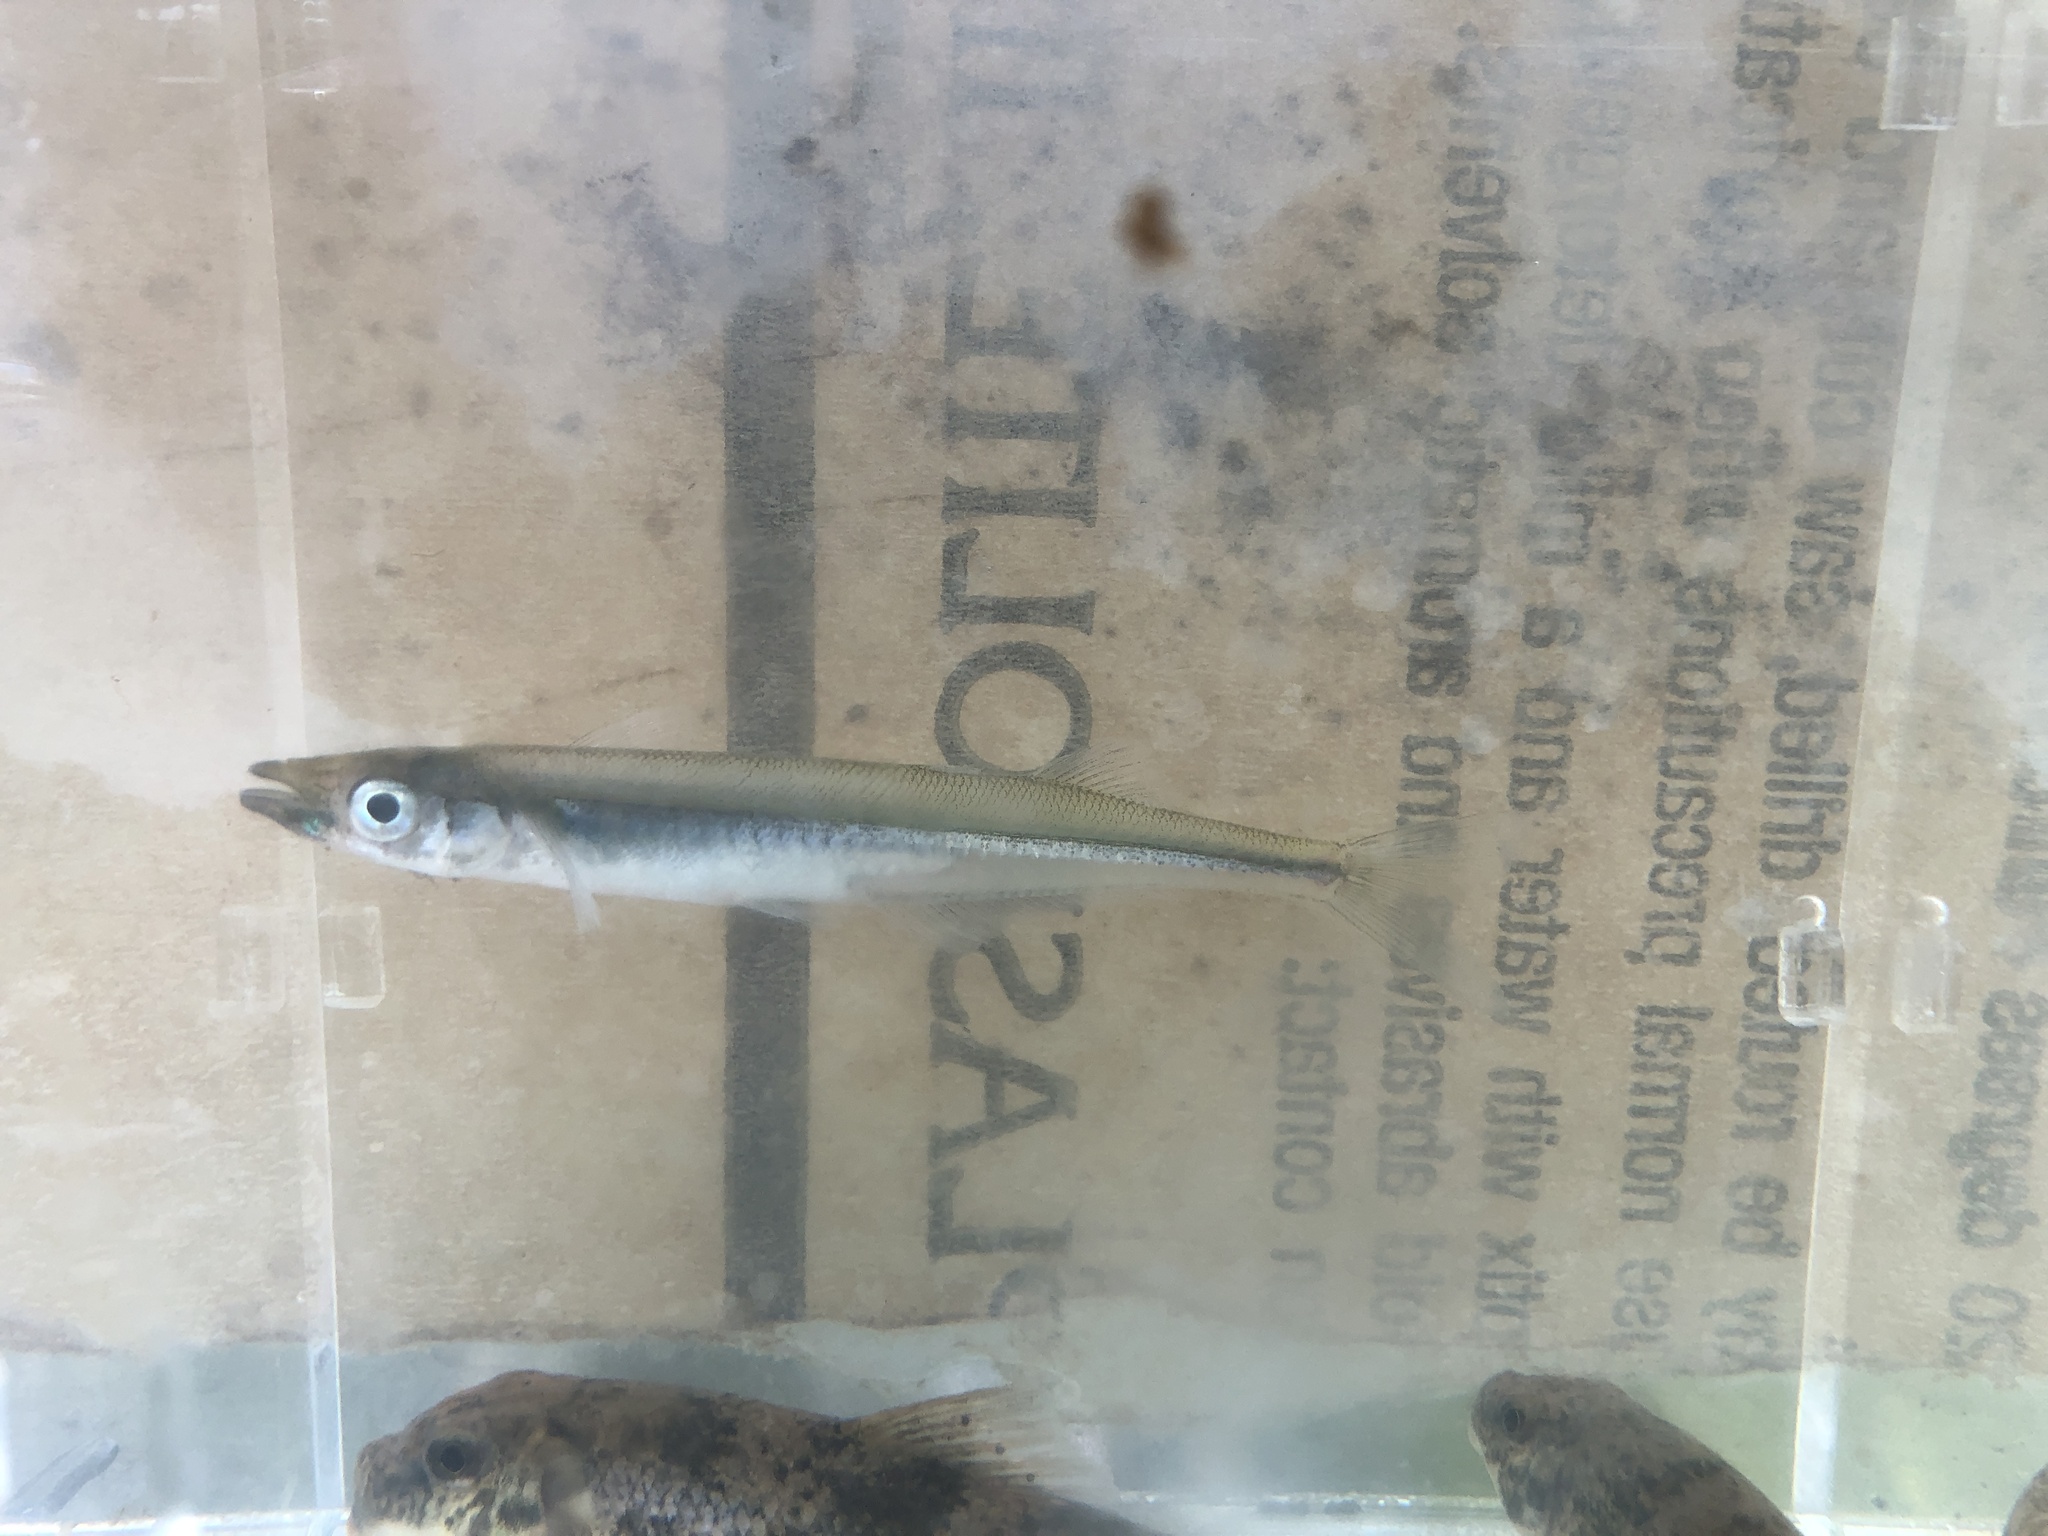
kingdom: Animalia
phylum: Chordata
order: Atheriniformes
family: Atherinopsidae
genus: Labidesthes
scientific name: Labidesthes sicculus
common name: Brook silverside
